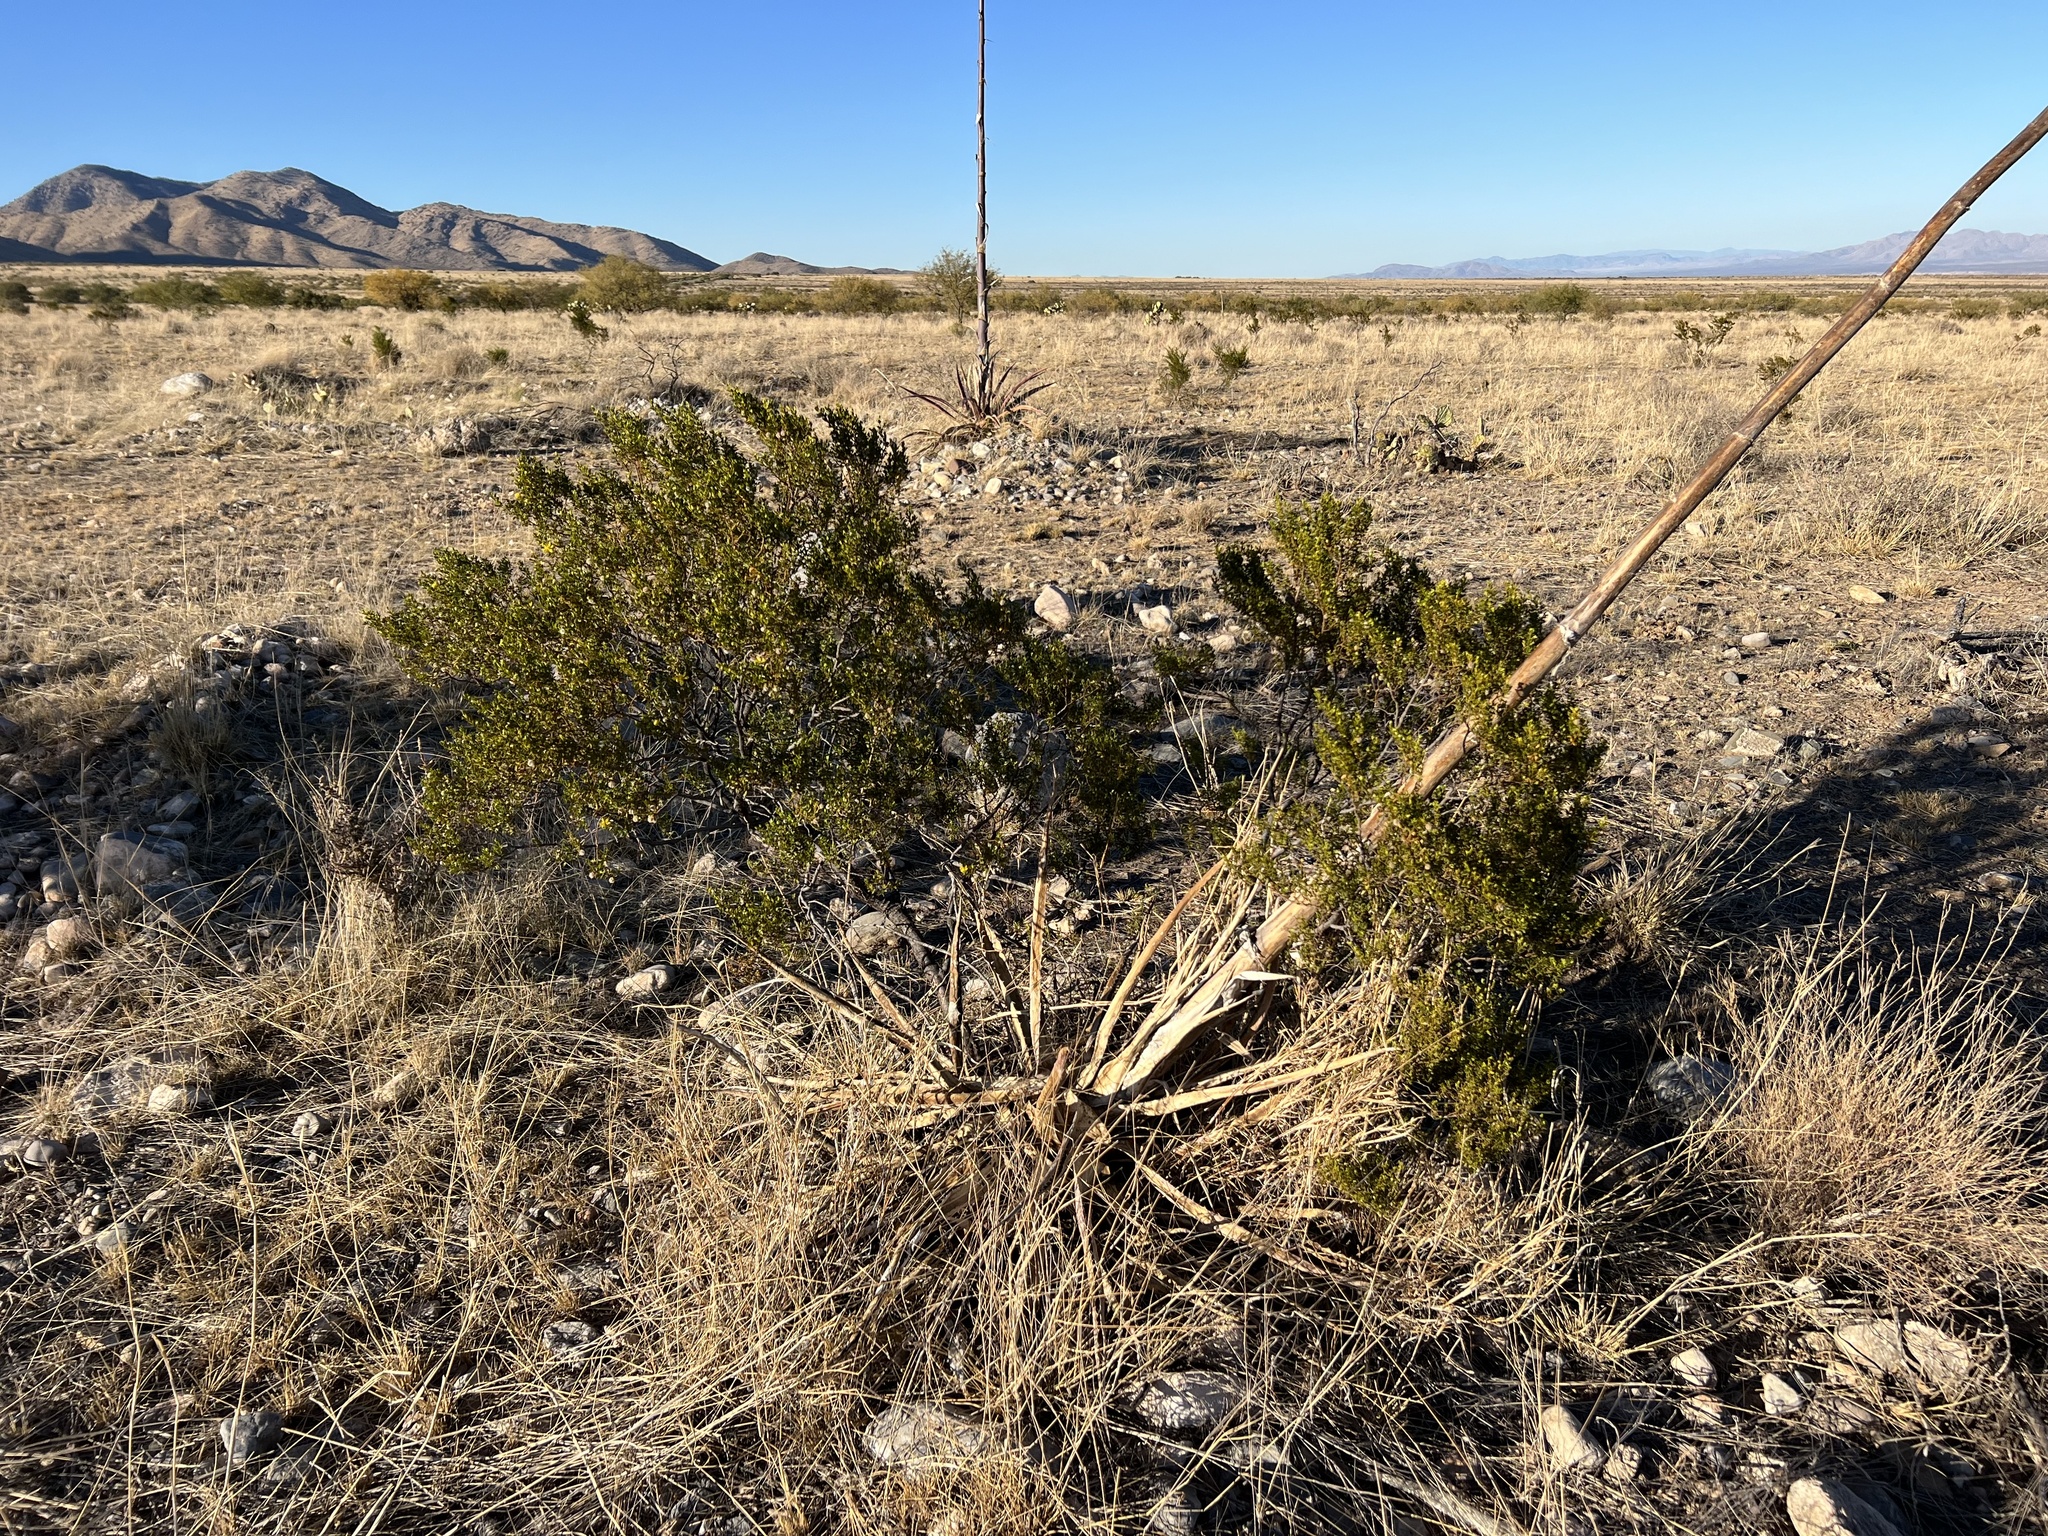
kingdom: Plantae
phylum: Tracheophyta
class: Magnoliopsida
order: Zygophyllales
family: Zygophyllaceae
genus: Larrea
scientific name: Larrea tridentata
